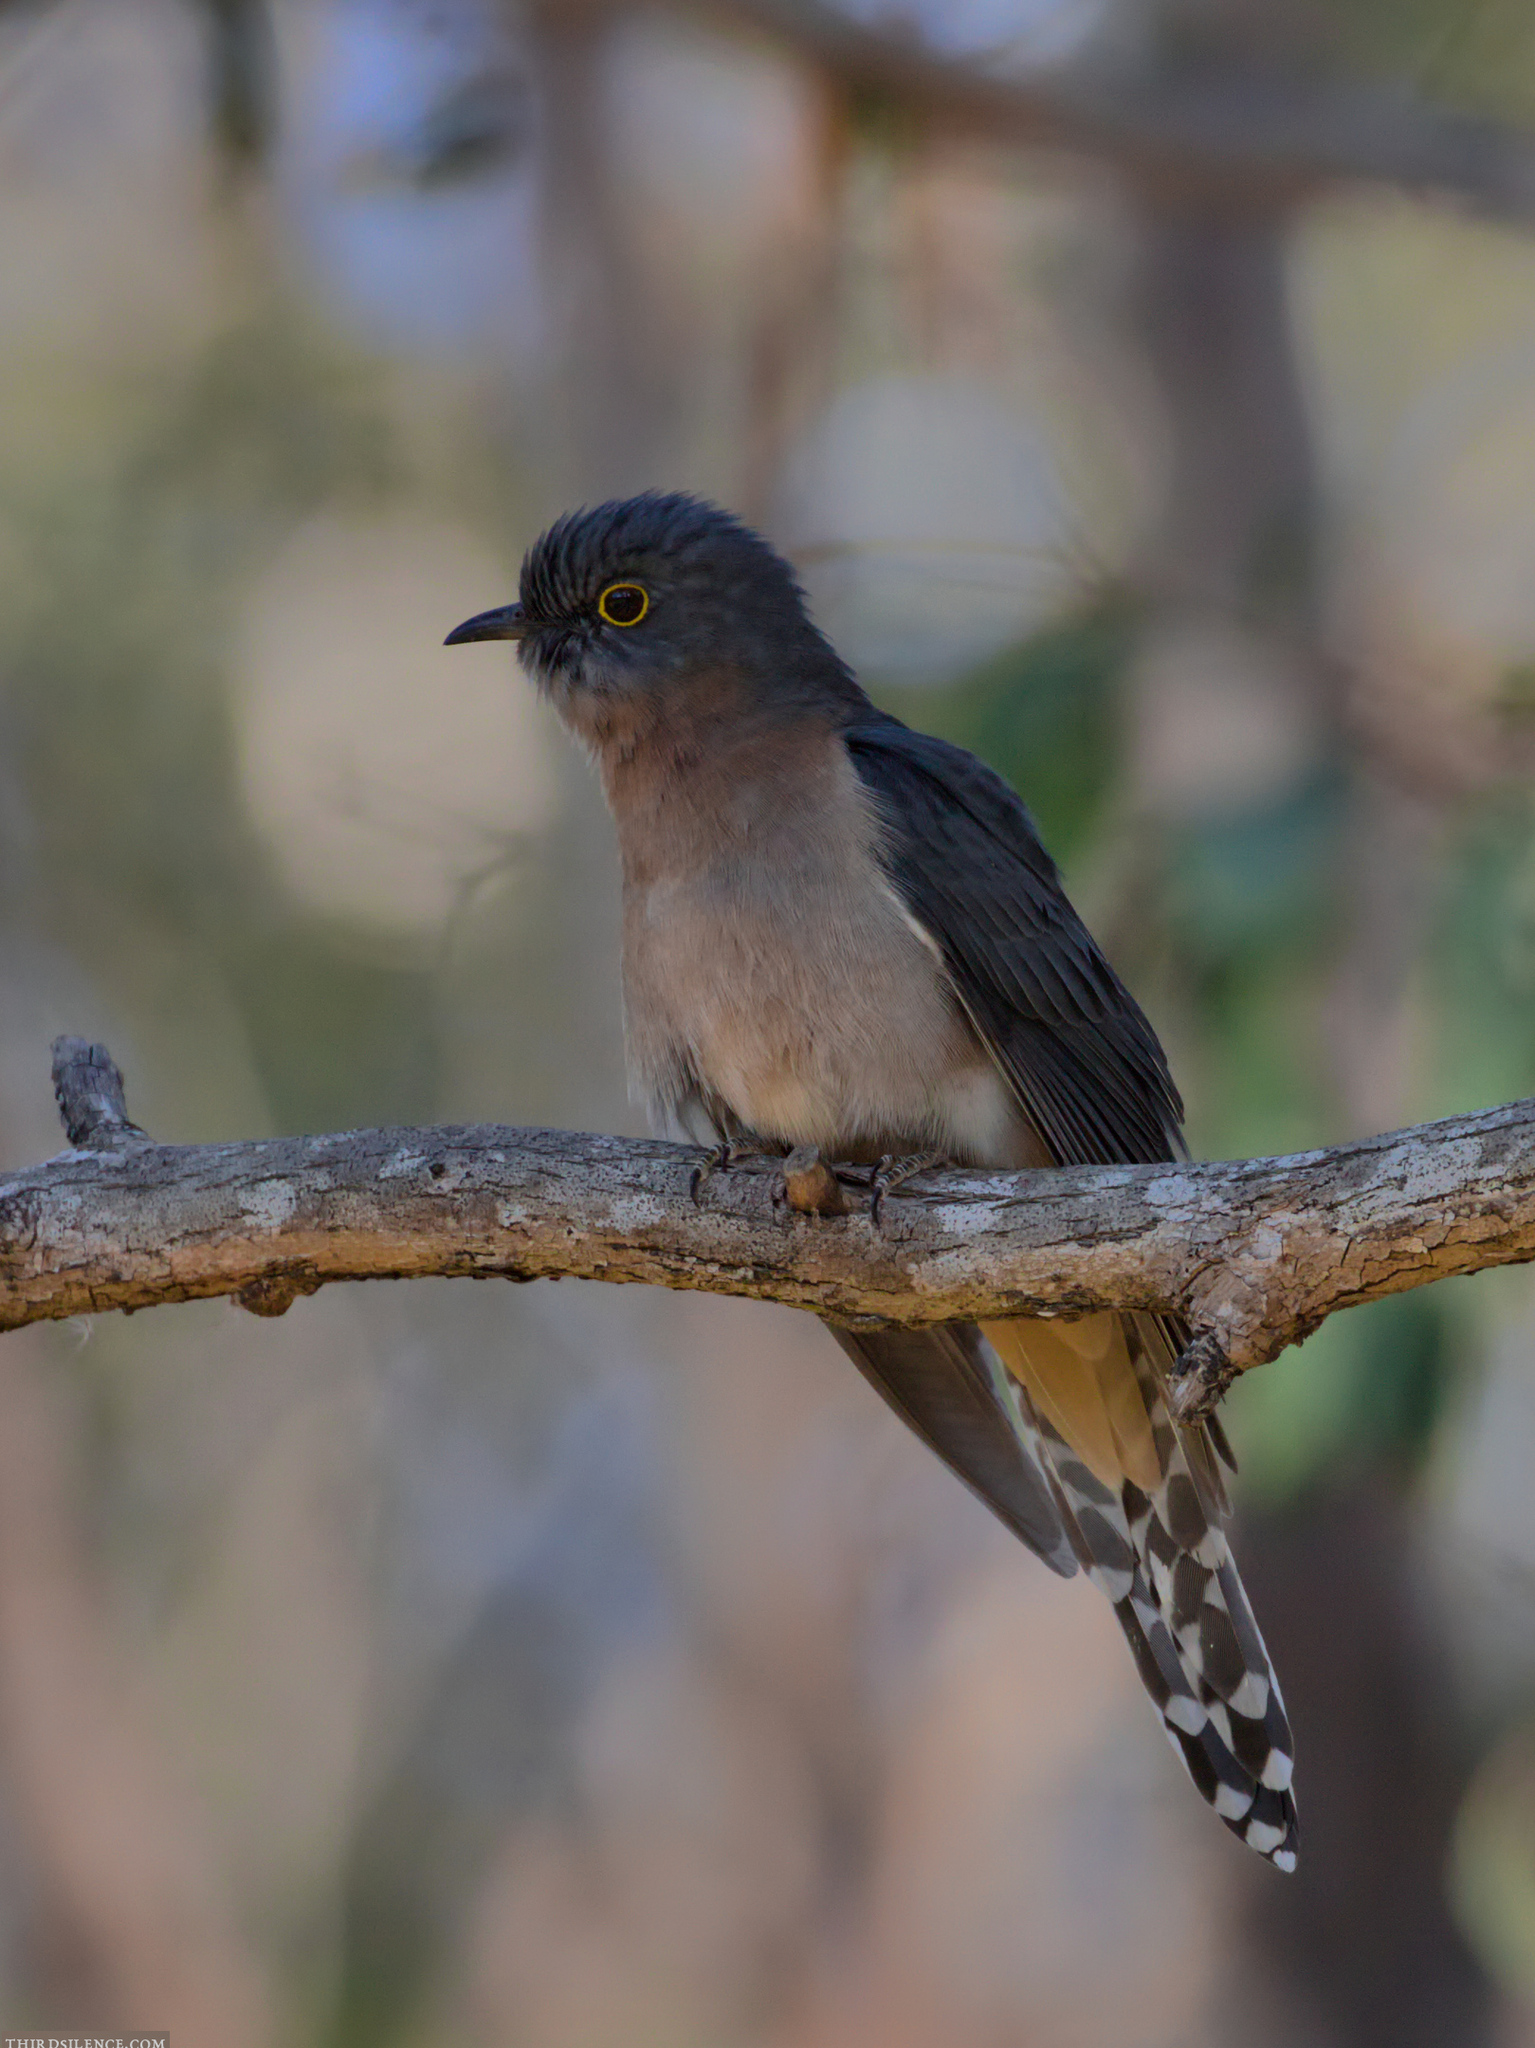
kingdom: Animalia
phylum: Chordata
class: Aves
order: Cuculiformes
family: Cuculidae
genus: Cacomantis
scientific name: Cacomantis flabelliformis
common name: Fan-tailed cuckoo
